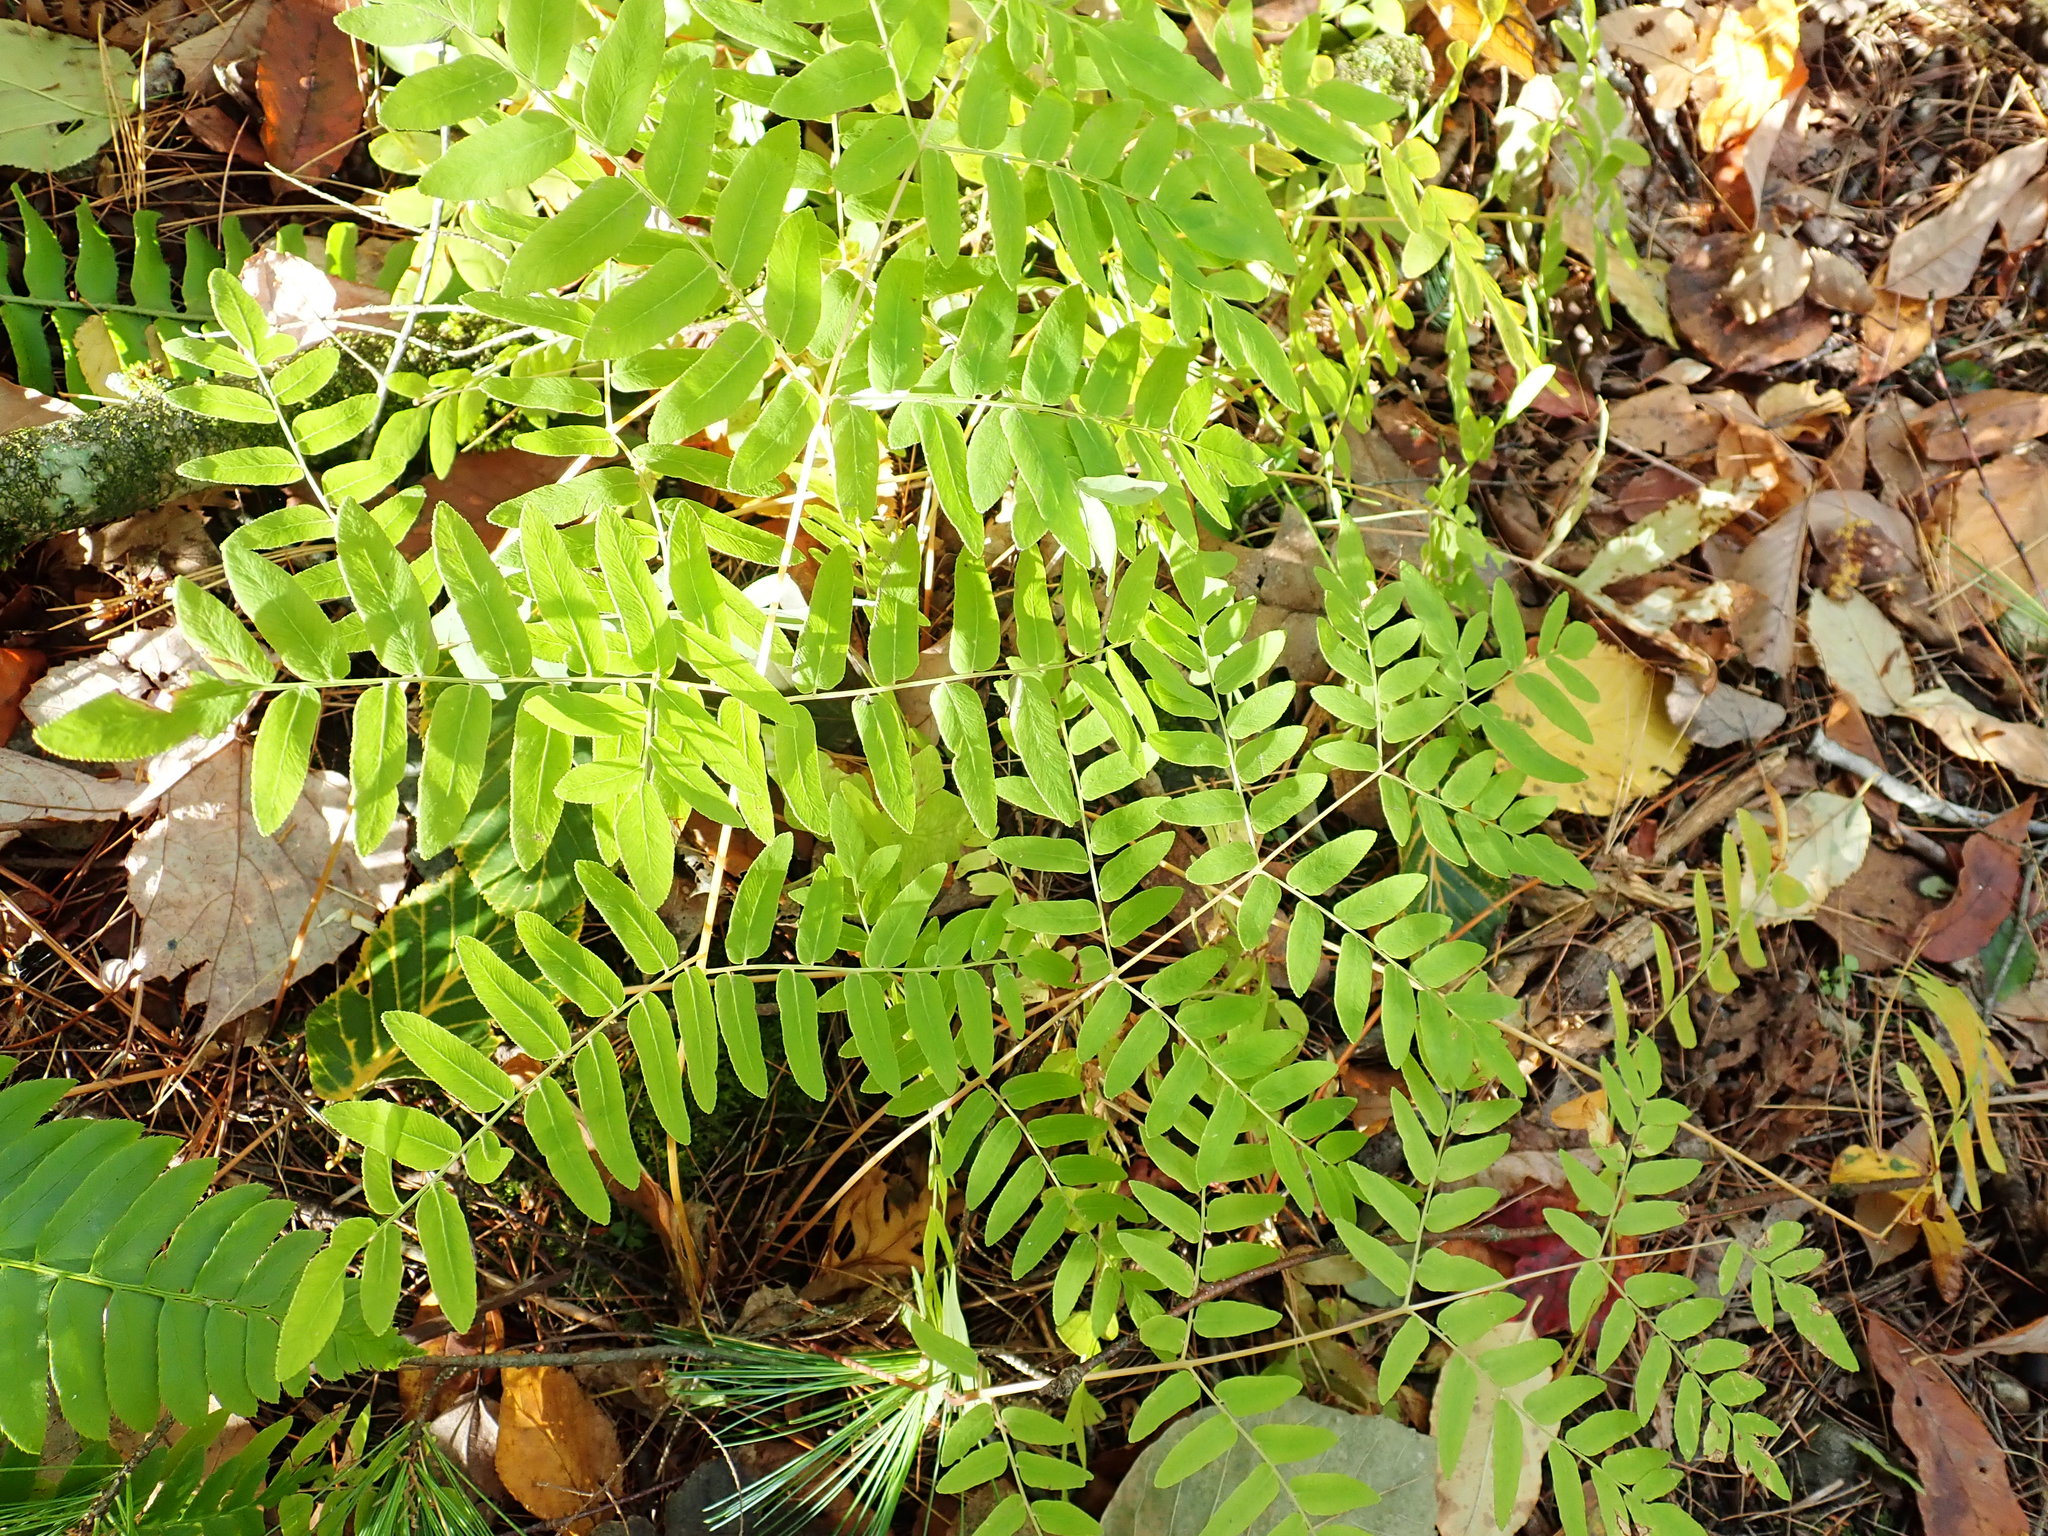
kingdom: Plantae
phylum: Tracheophyta
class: Polypodiopsida
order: Osmundales
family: Osmundaceae
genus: Osmunda
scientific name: Osmunda spectabilis
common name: American royal fern
